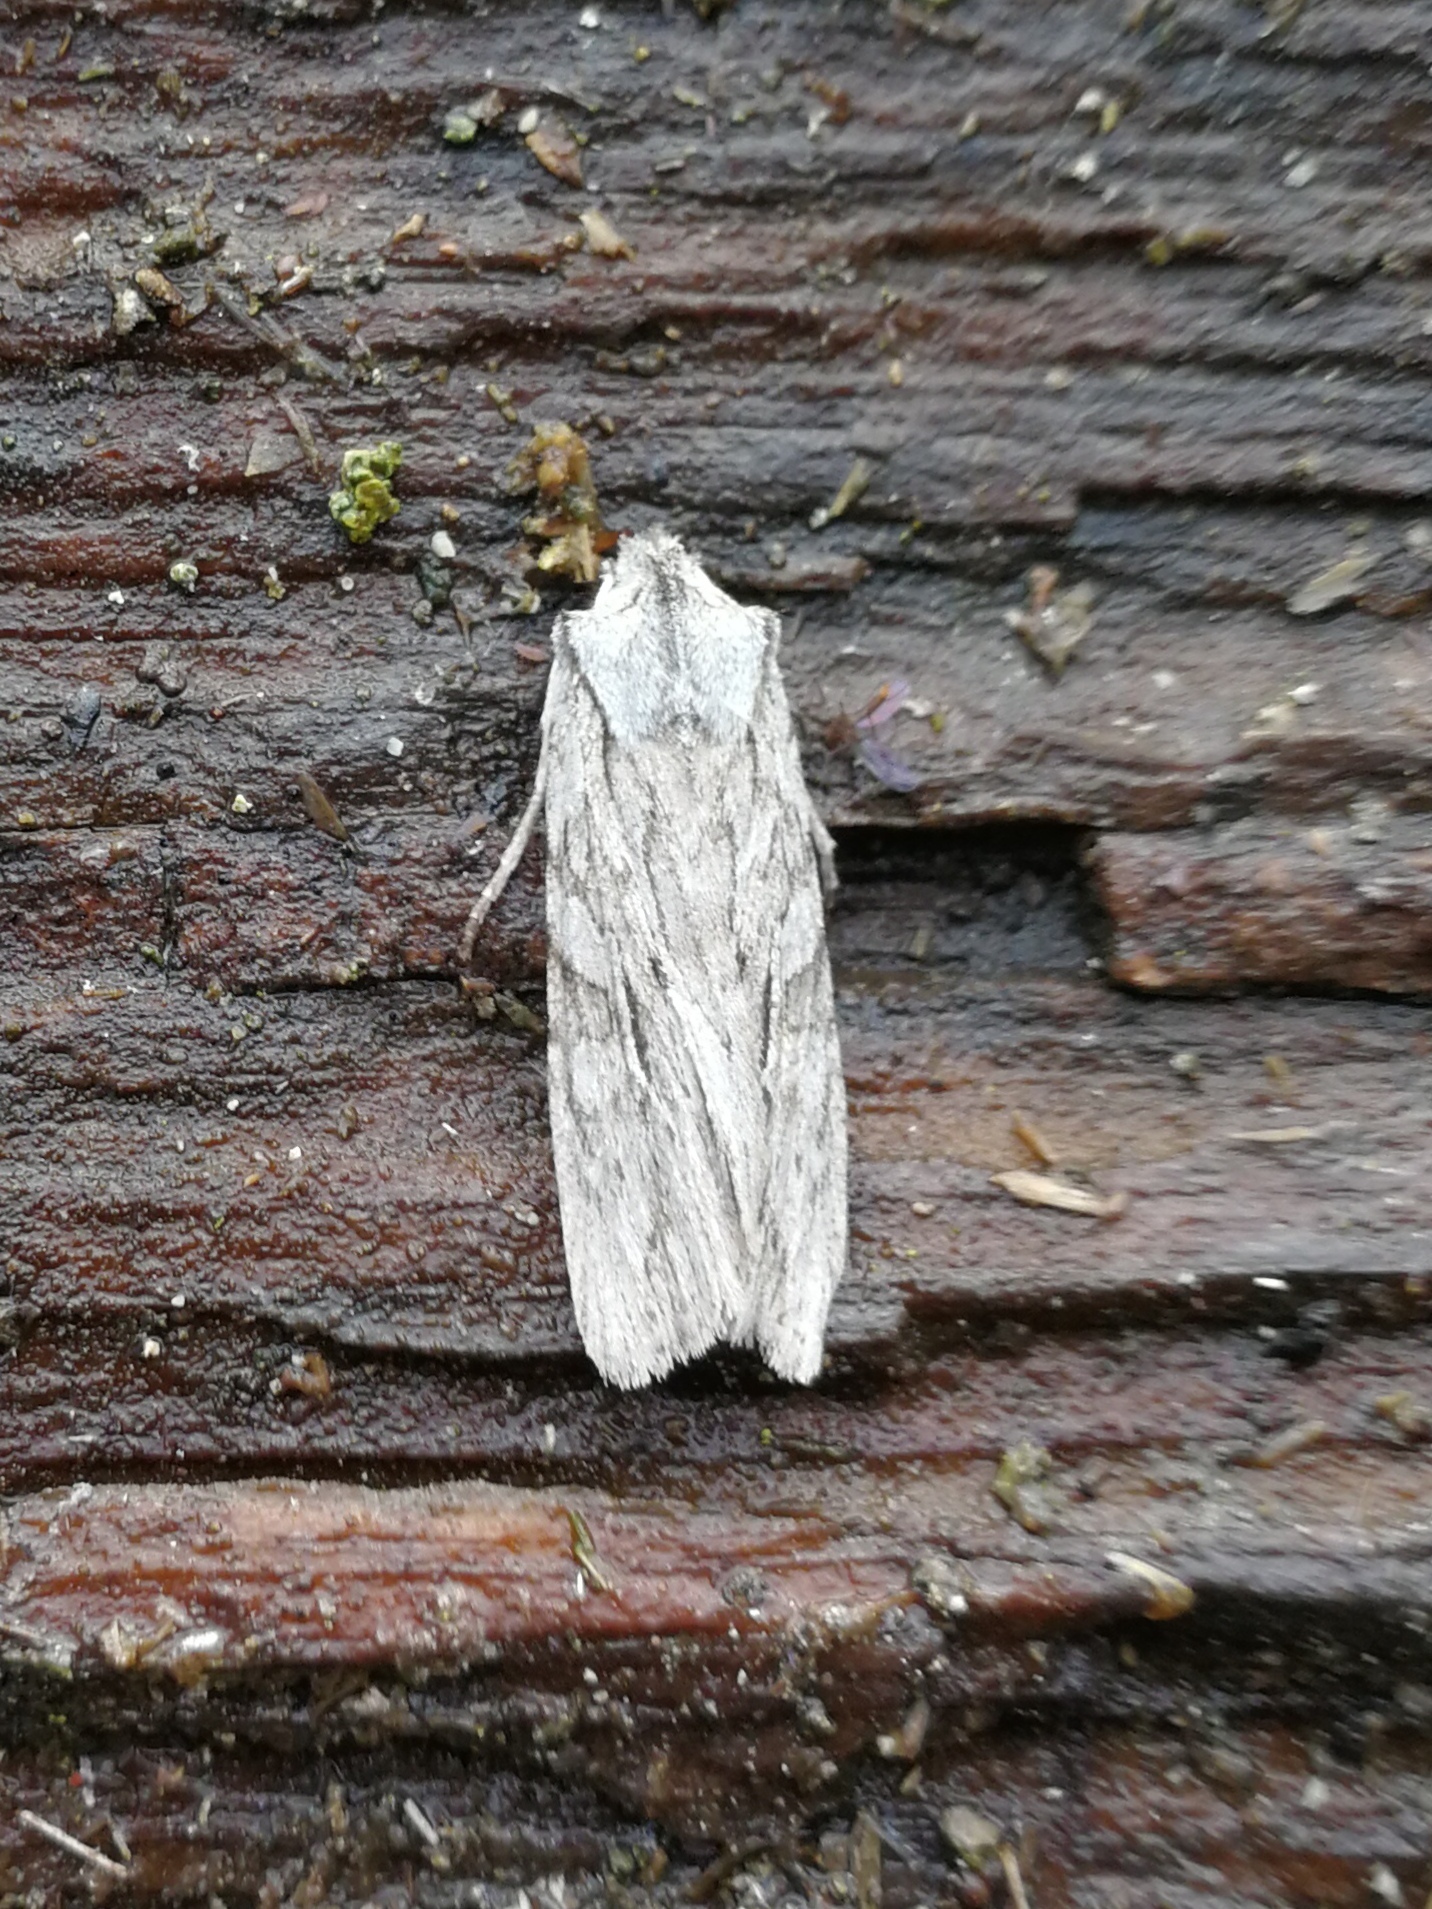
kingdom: Animalia
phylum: Arthropoda
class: Insecta
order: Lepidoptera
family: Noctuidae
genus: Lithophane
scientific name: Lithophane leautieri
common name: Blair's shoulder-knot
